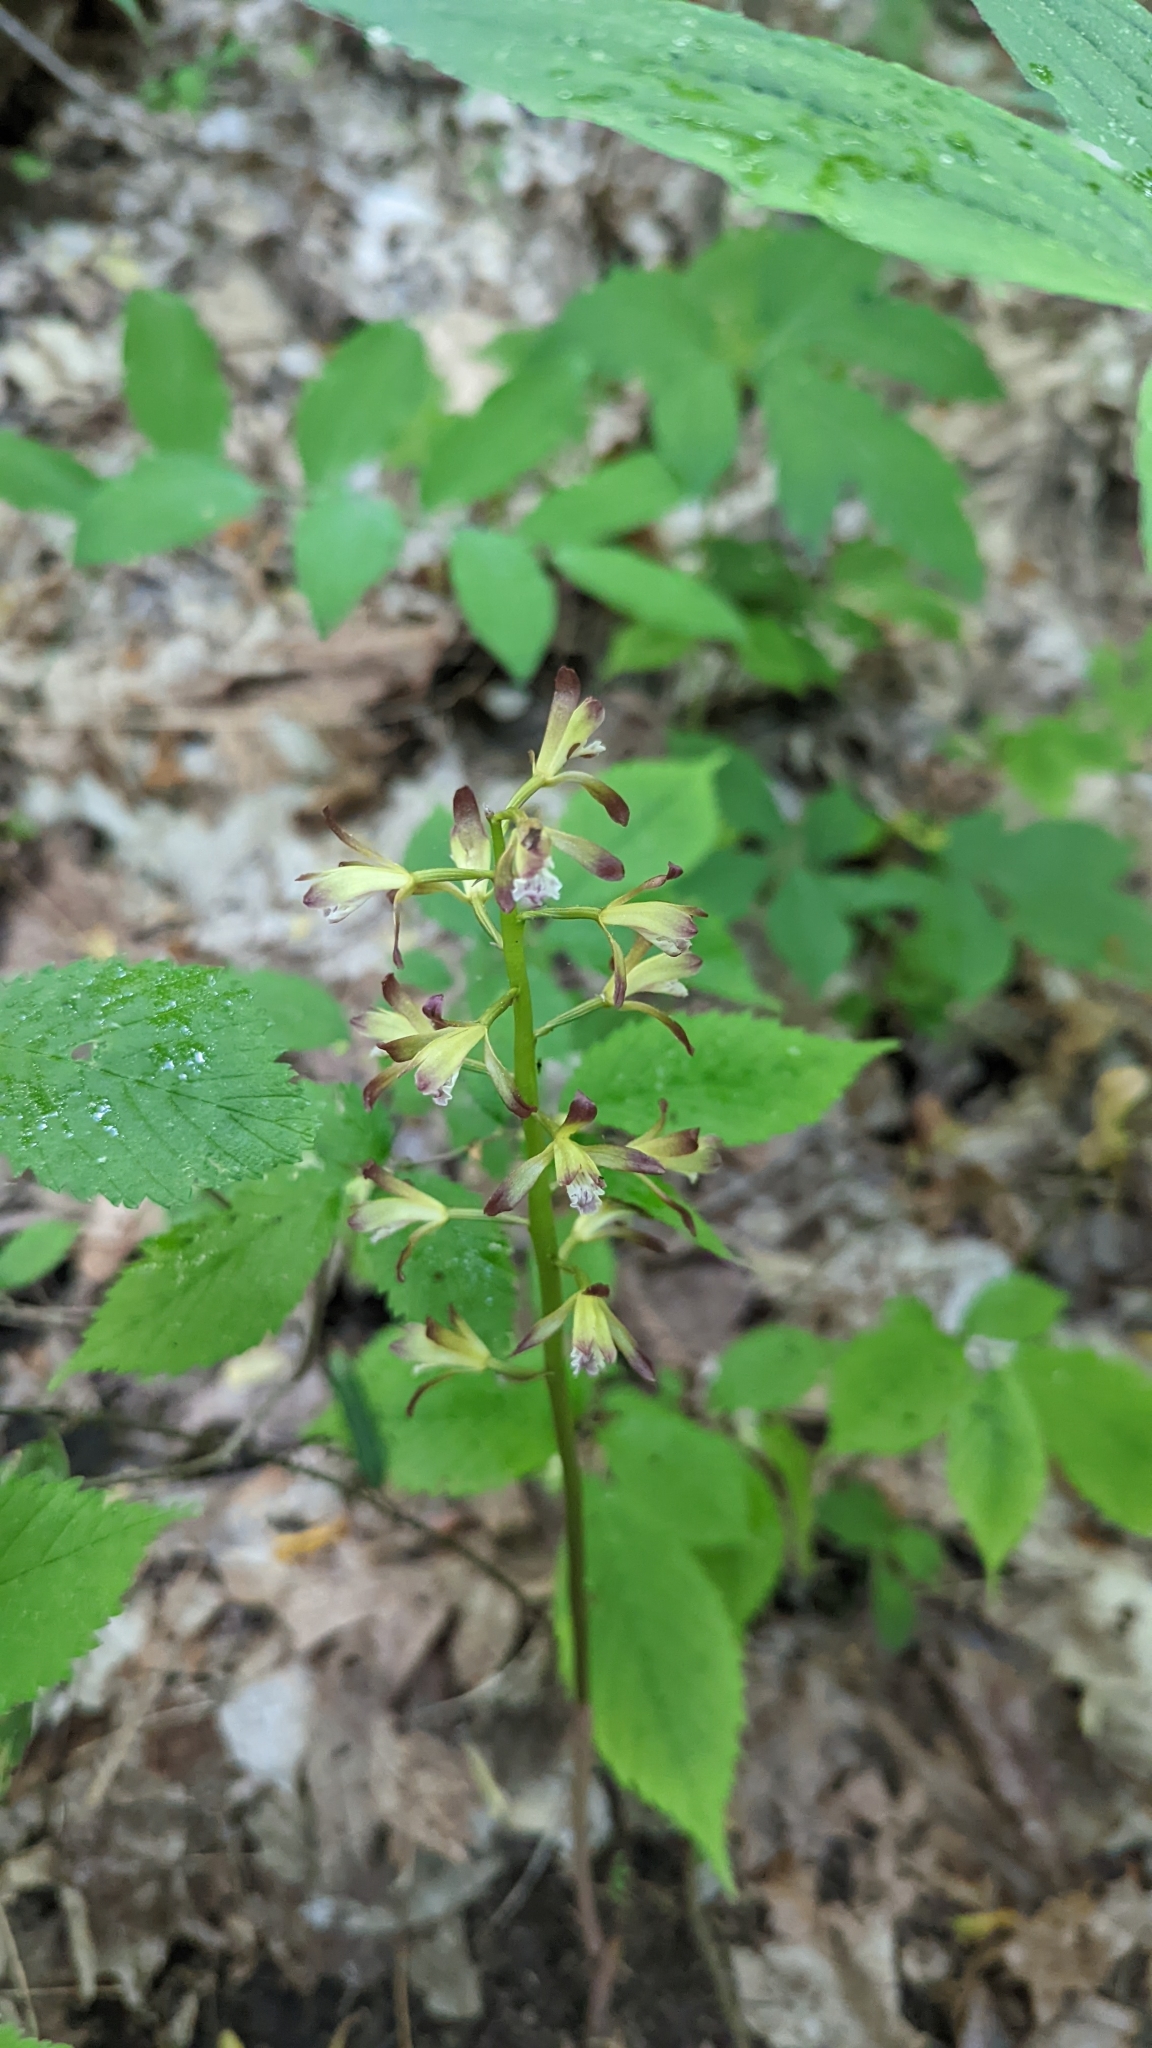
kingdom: Plantae
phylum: Tracheophyta
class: Liliopsida
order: Asparagales
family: Orchidaceae
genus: Aplectrum
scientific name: Aplectrum hyemale
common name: Adam-and-eve
